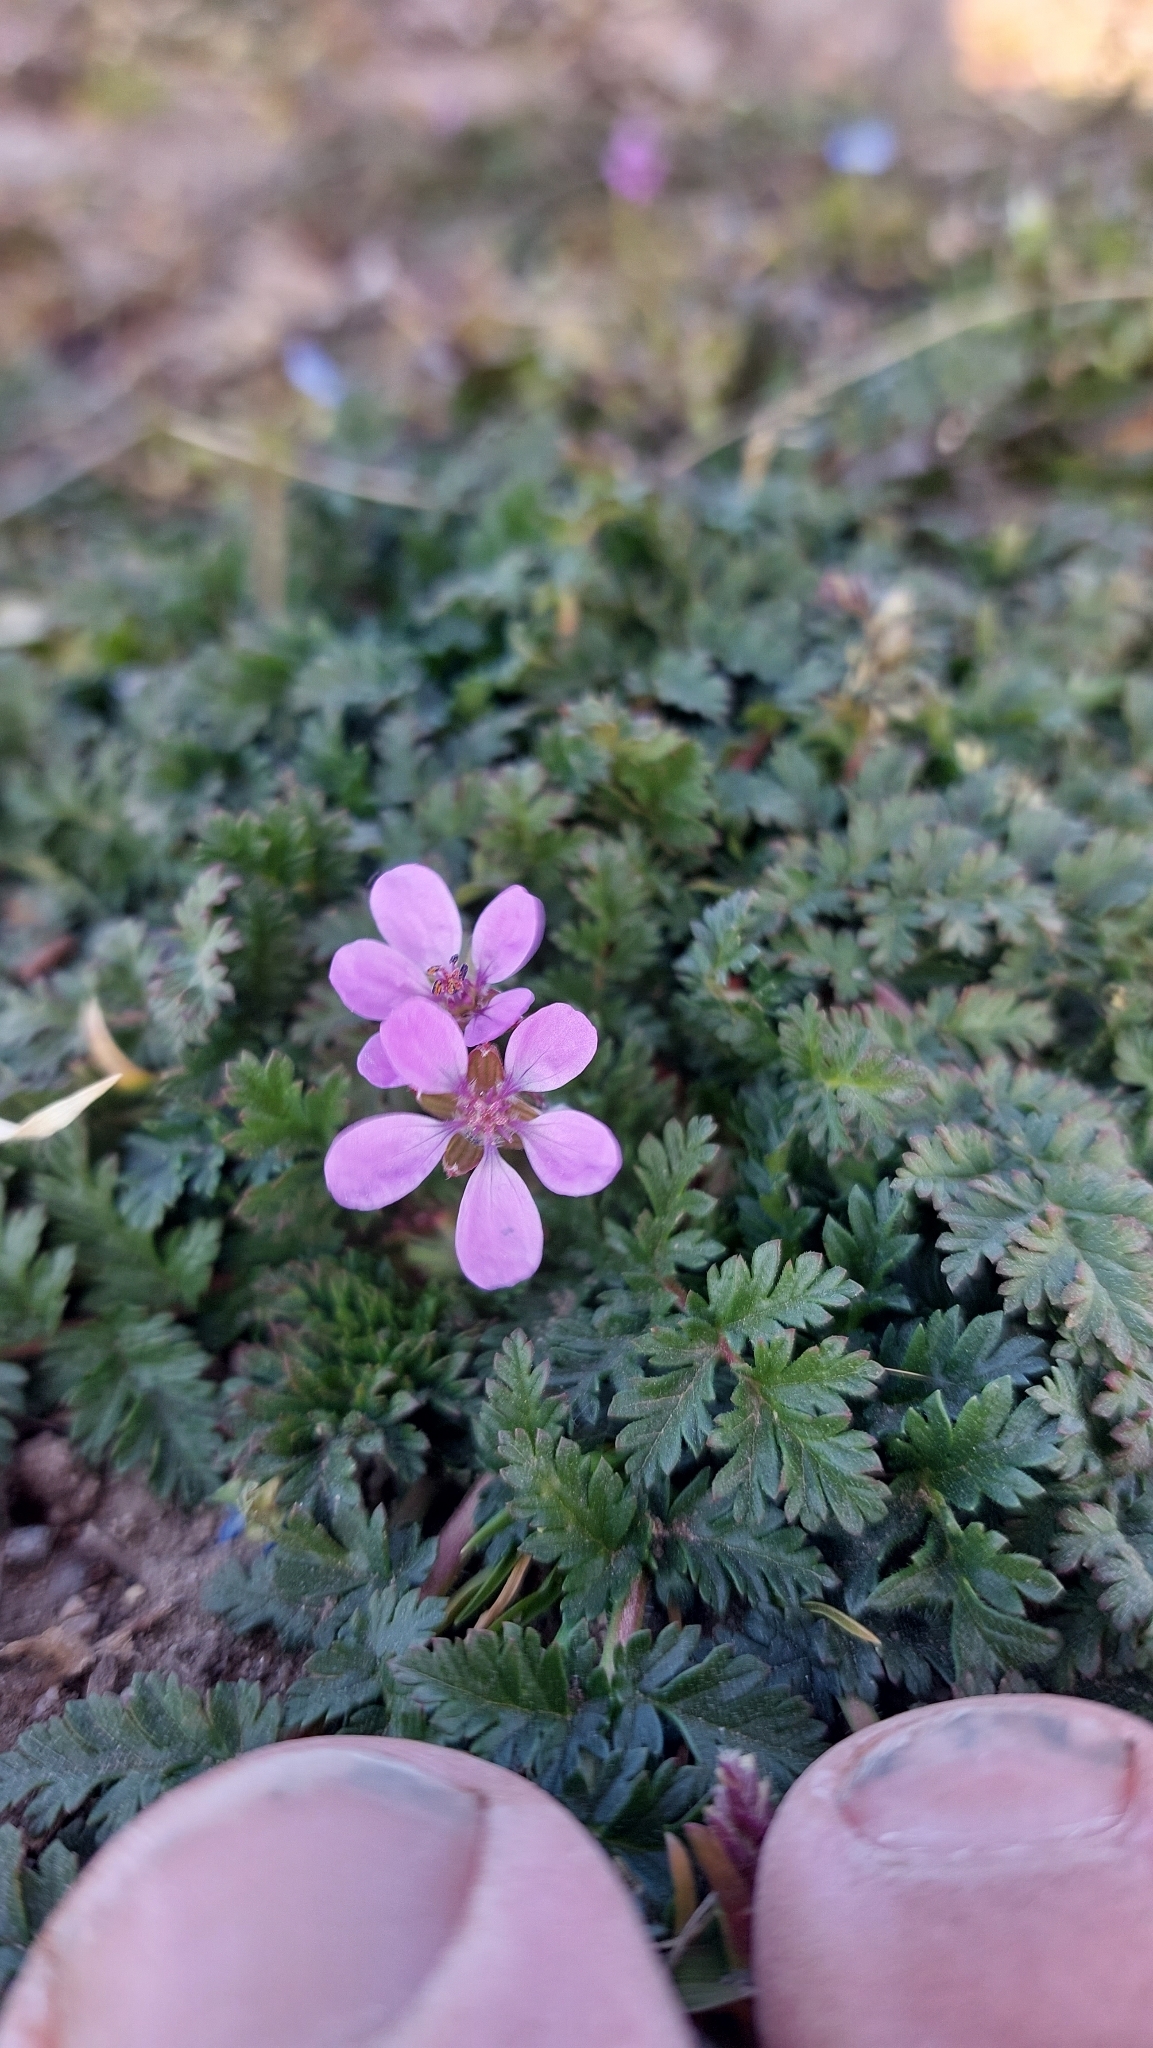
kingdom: Plantae
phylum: Tracheophyta
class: Magnoliopsida
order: Geraniales
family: Geraniaceae
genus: Erodium
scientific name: Erodium cicutarium
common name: Common stork's-bill
